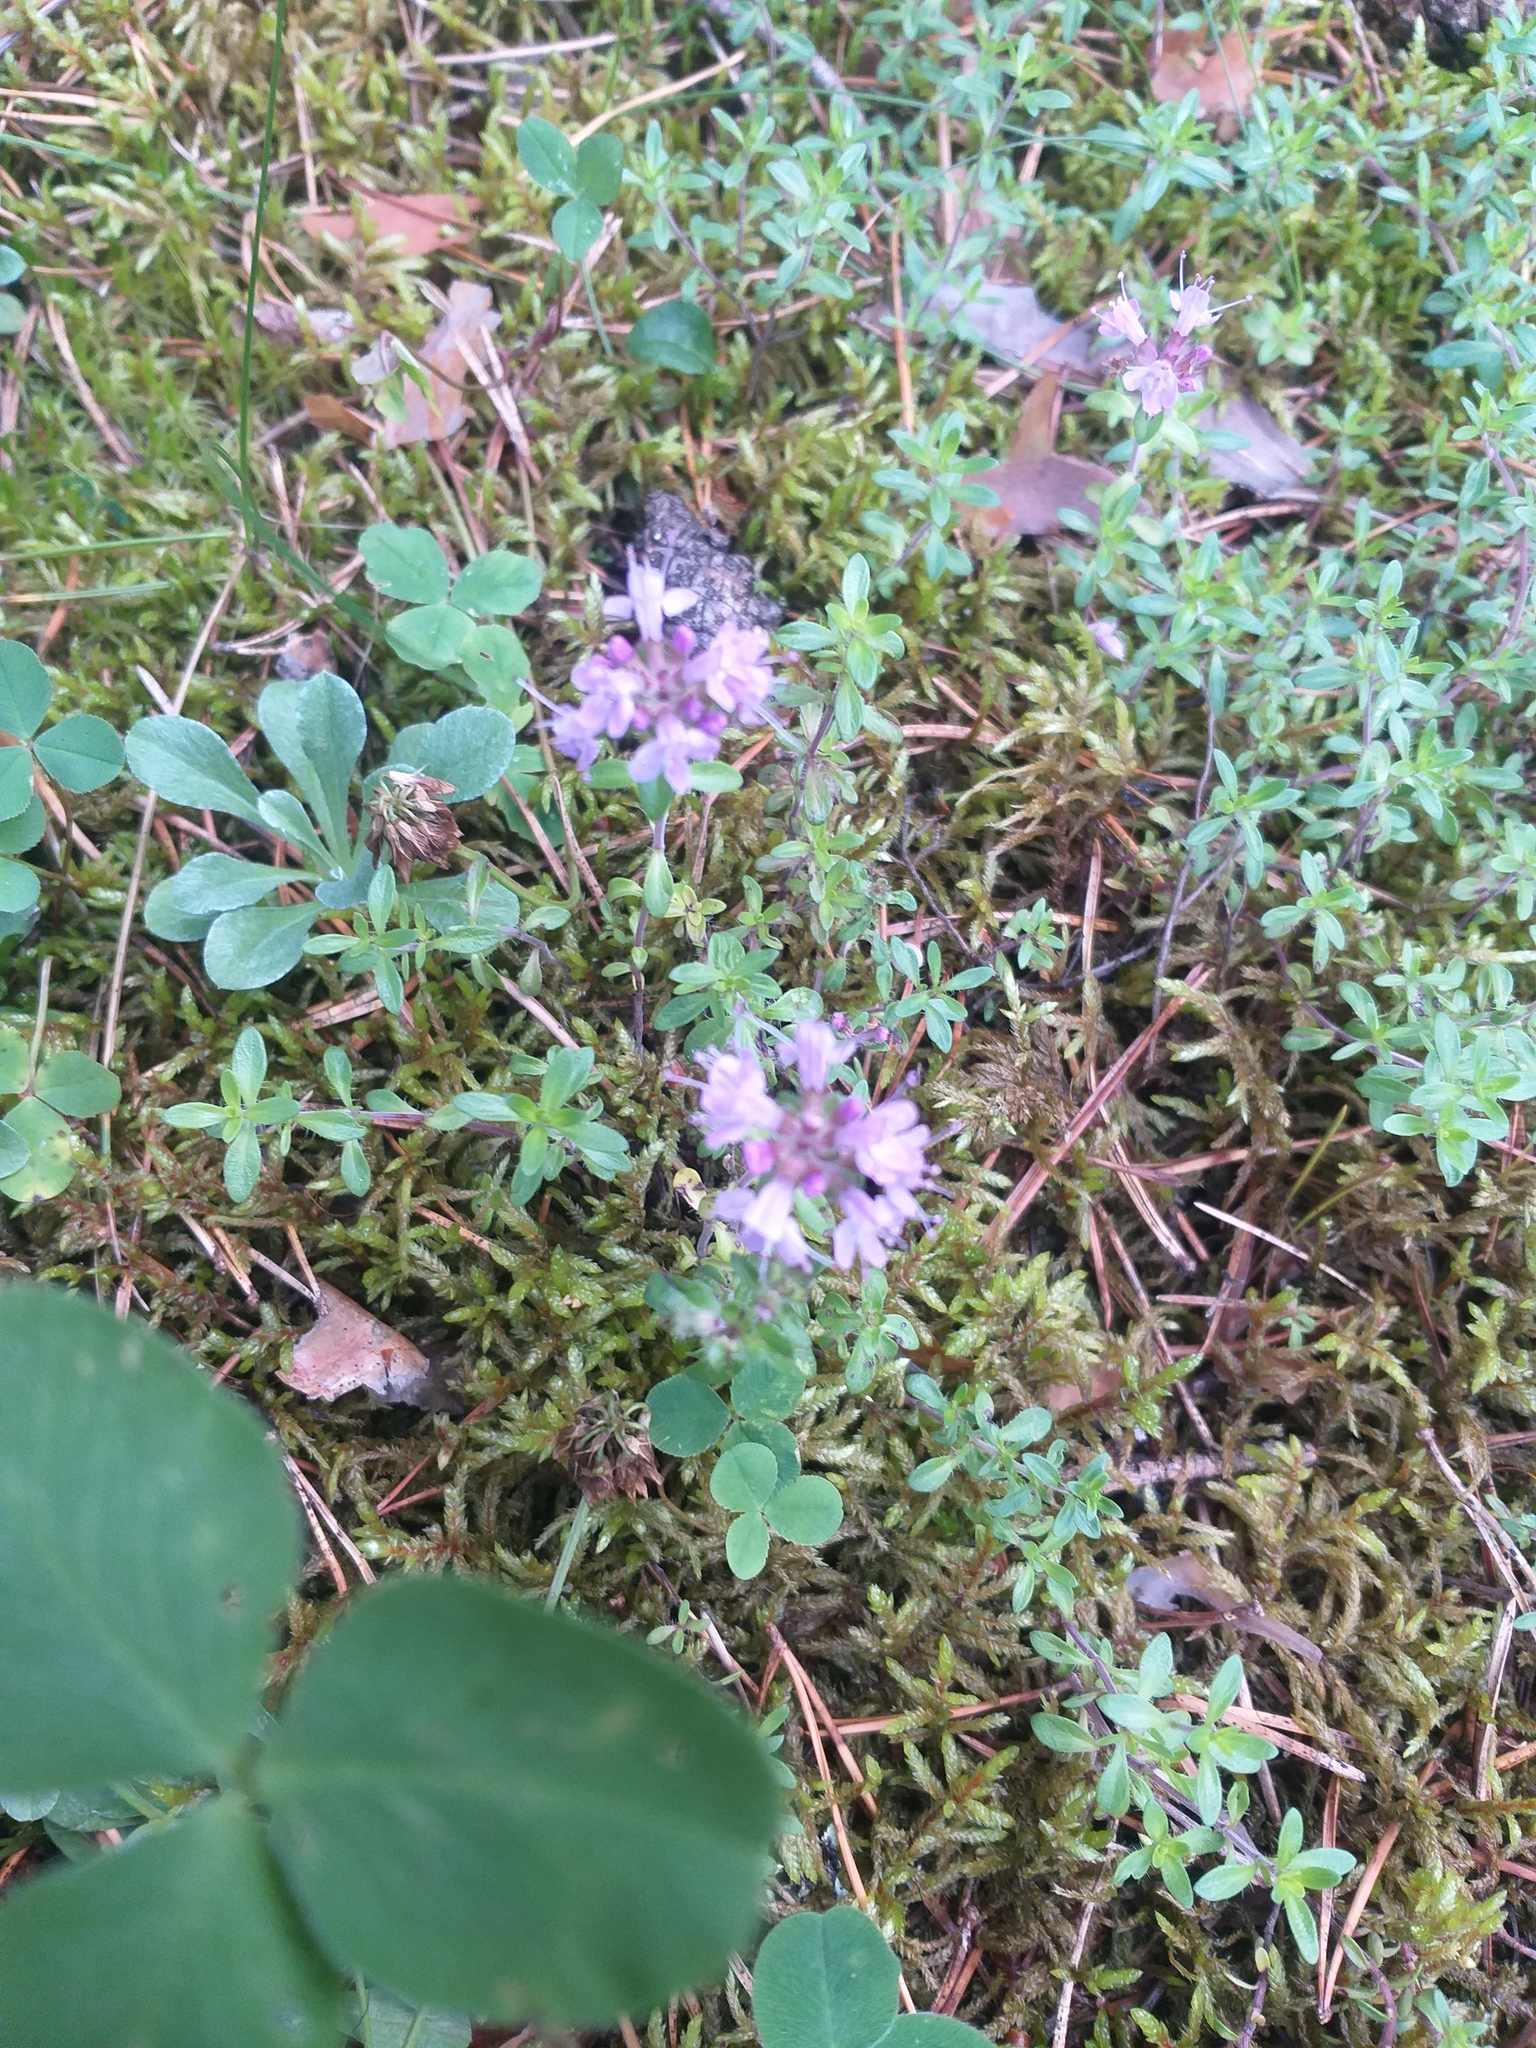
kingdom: Plantae
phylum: Tracheophyta
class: Magnoliopsida
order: Lamiales
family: Lamiaceae
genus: Thymus
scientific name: Thymus serpyllum
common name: Breckland thyme
